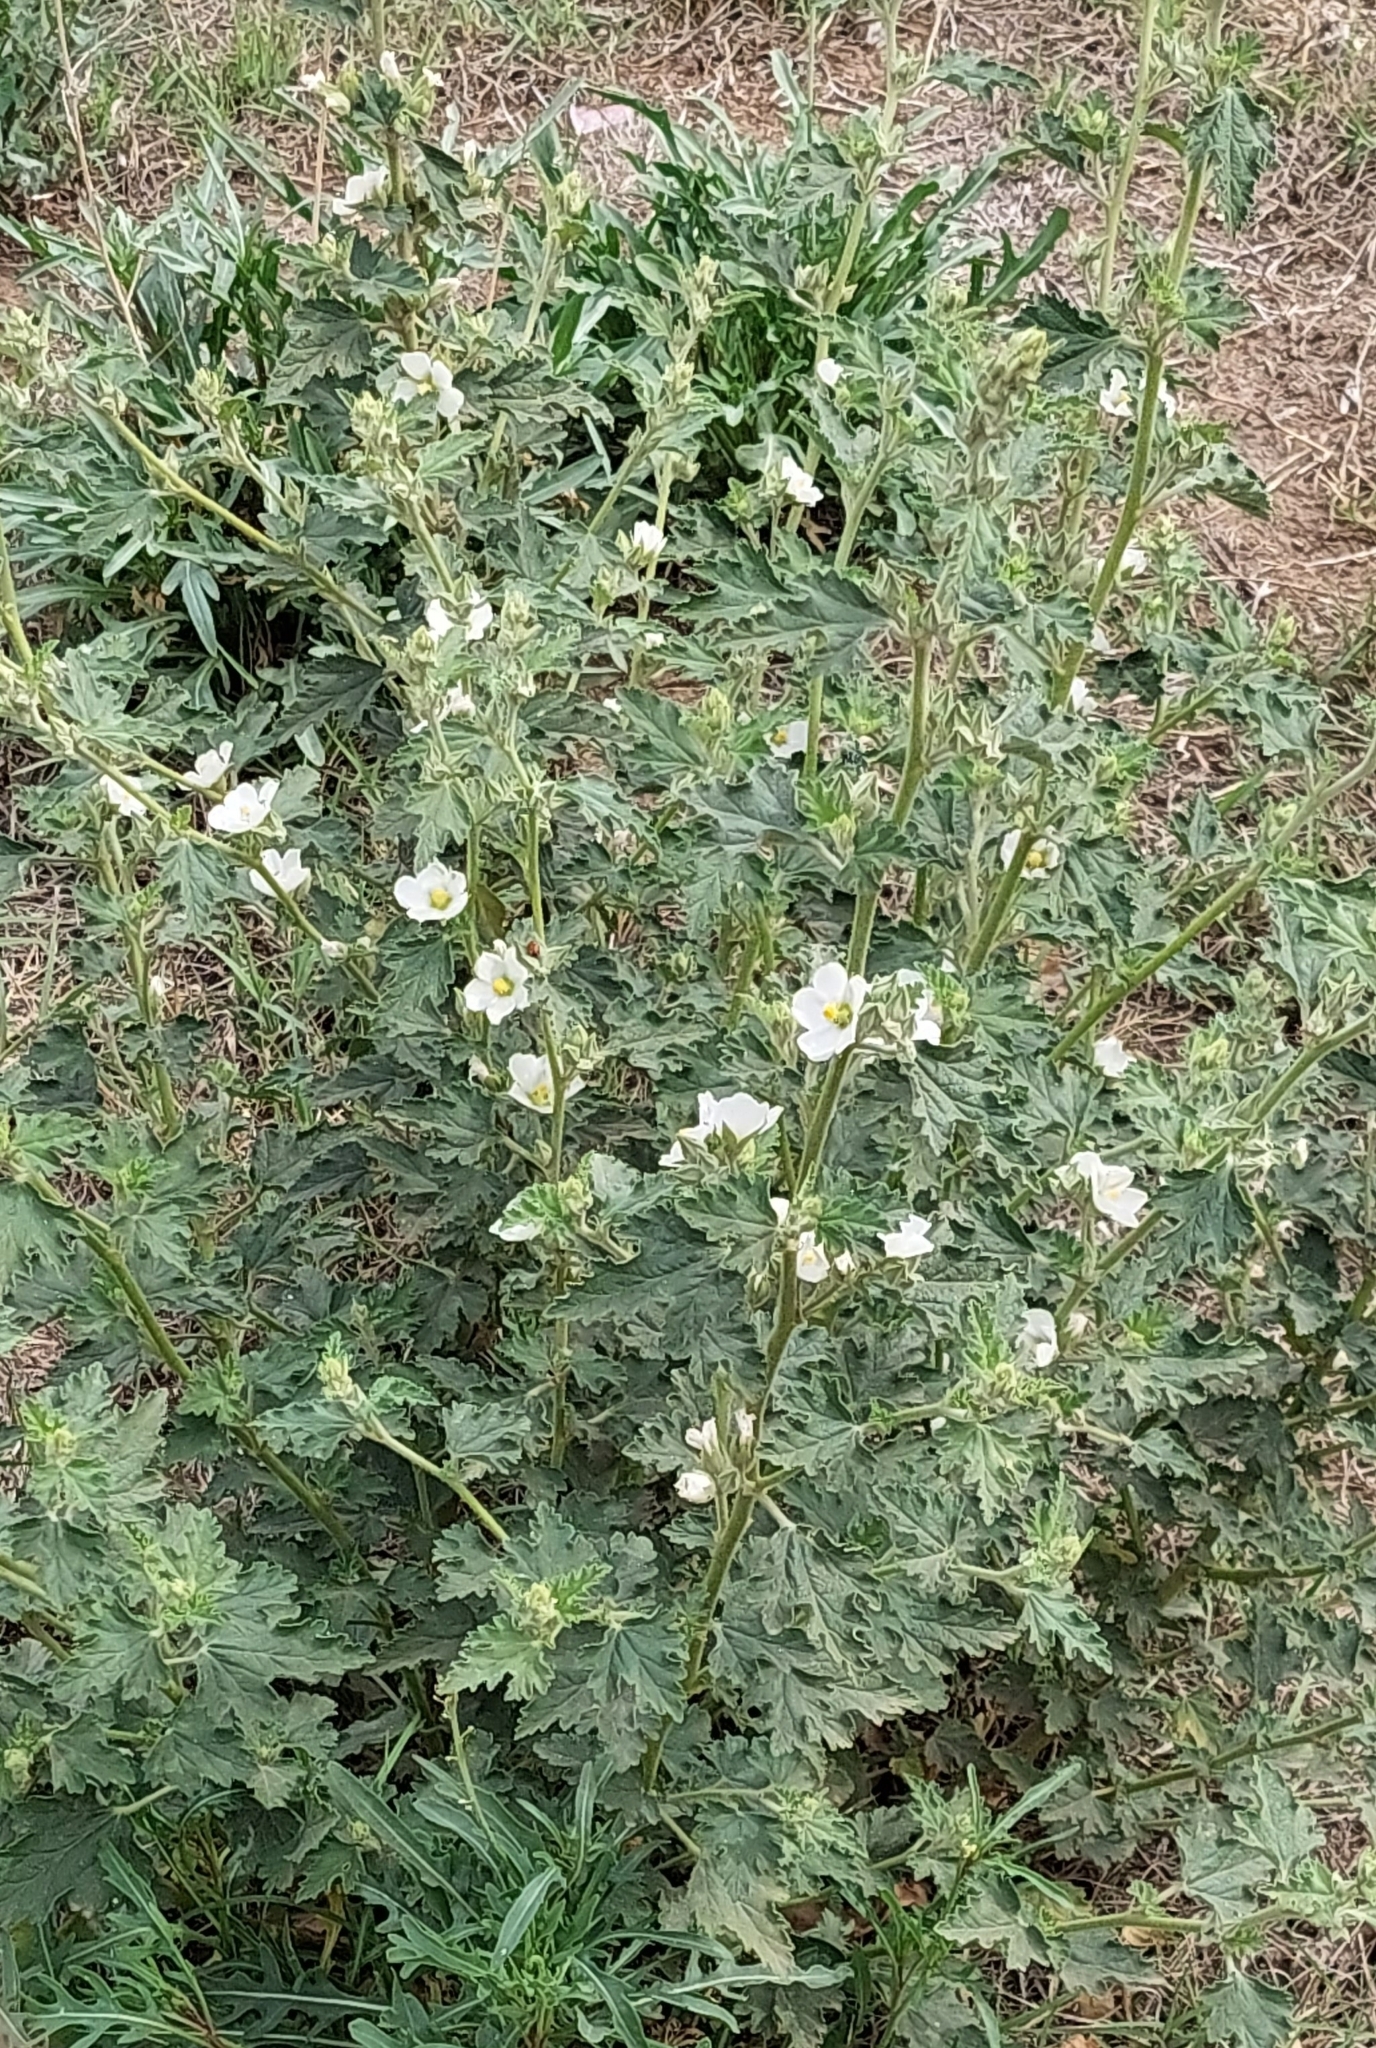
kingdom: Plantae
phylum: Tracheophyta
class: Magnoliopsida
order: Malvales
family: Malvaceae
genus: Sphaeralcea
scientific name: Sphaeralcea bonariensis
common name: Latin globemallow
